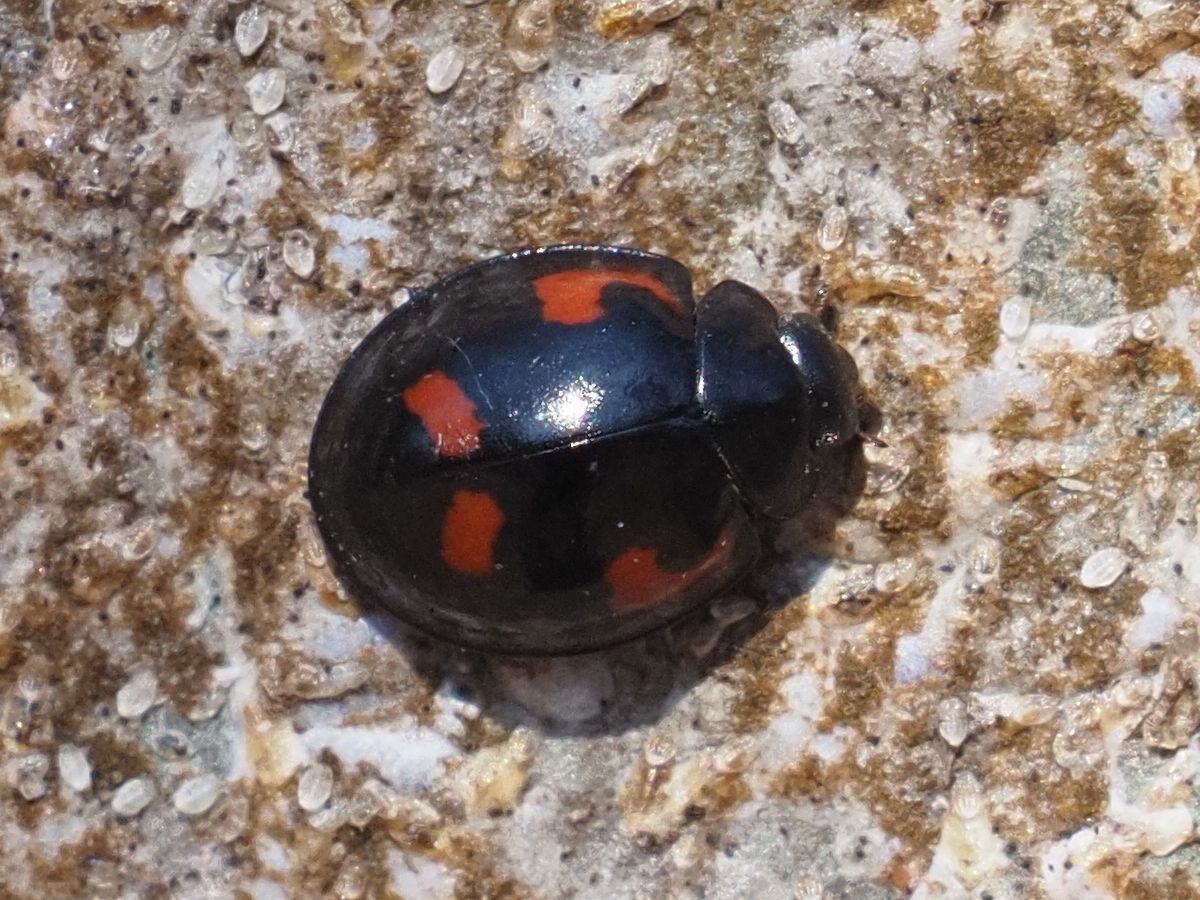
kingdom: Animalia
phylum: Arthropoda
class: Insecta
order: Coleoptera
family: Coccinellidae
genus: Brumus
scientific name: Brumus quadripustulatus
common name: Ladybird beetle
